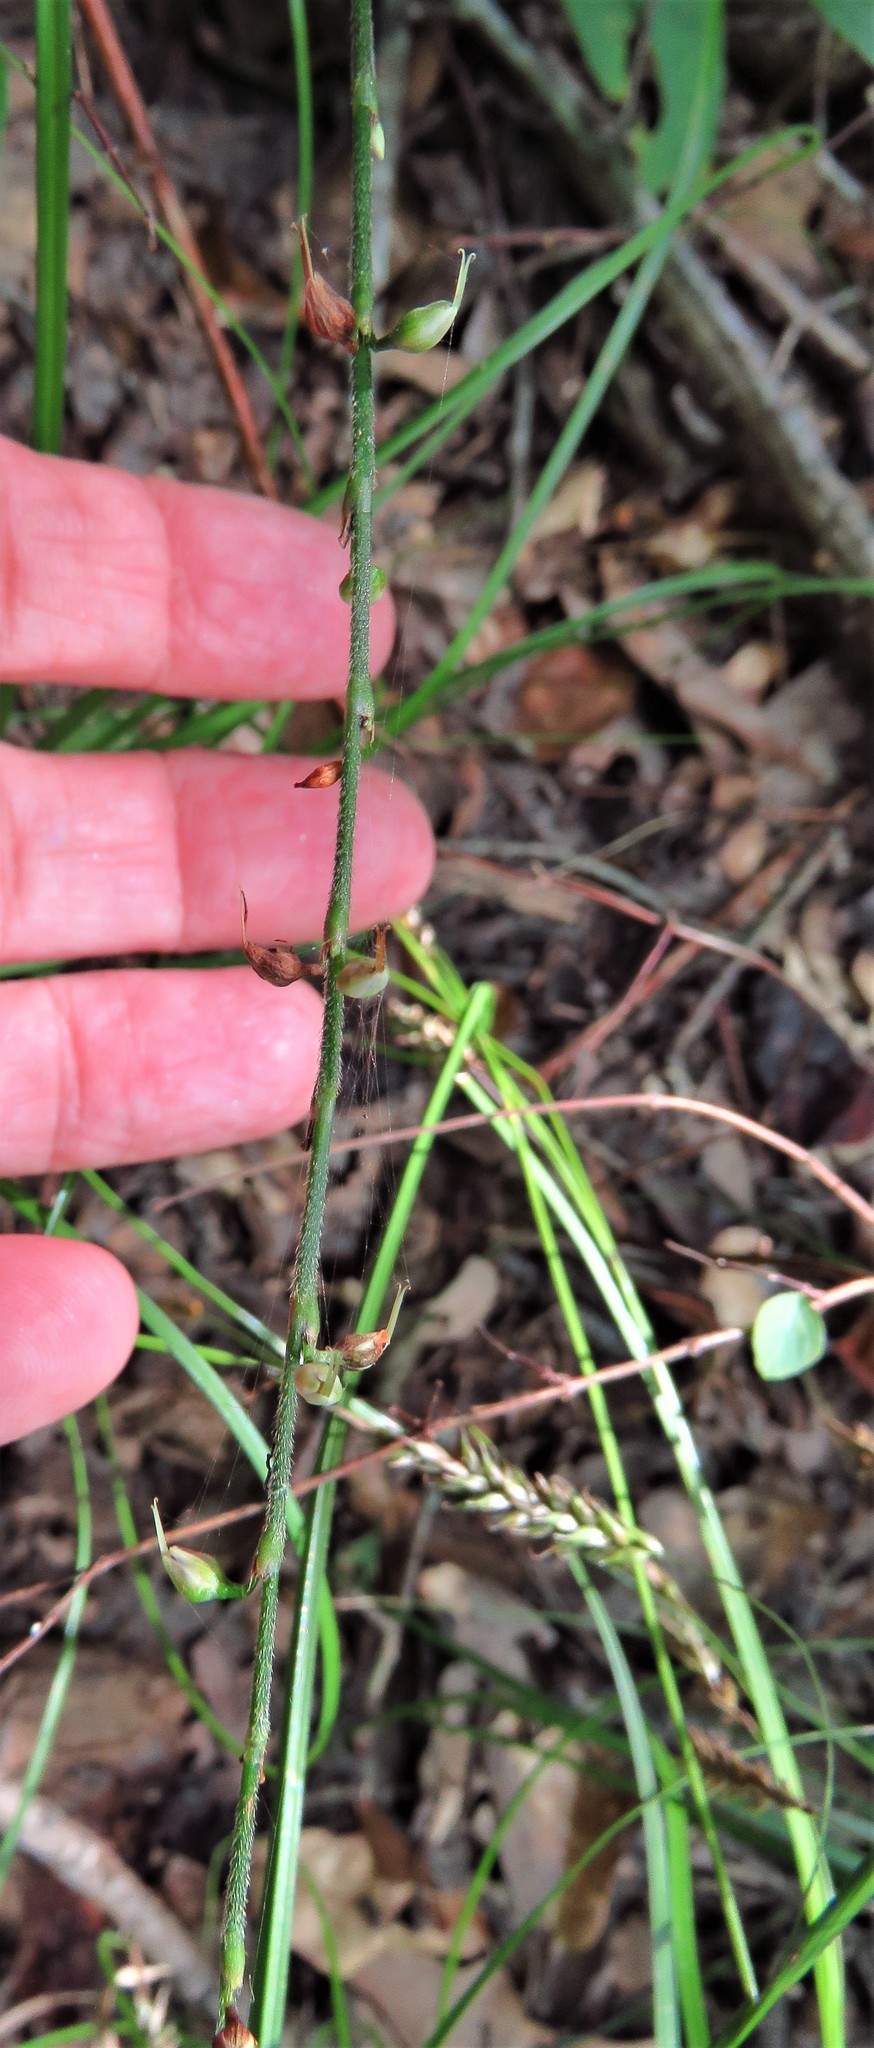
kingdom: Plantae
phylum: Tracheophyta
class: Magnoliopsida
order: Caryophyllales
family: Polygonaceae
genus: Persicaria
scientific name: Persicaria virginiana
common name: Jumpseed
